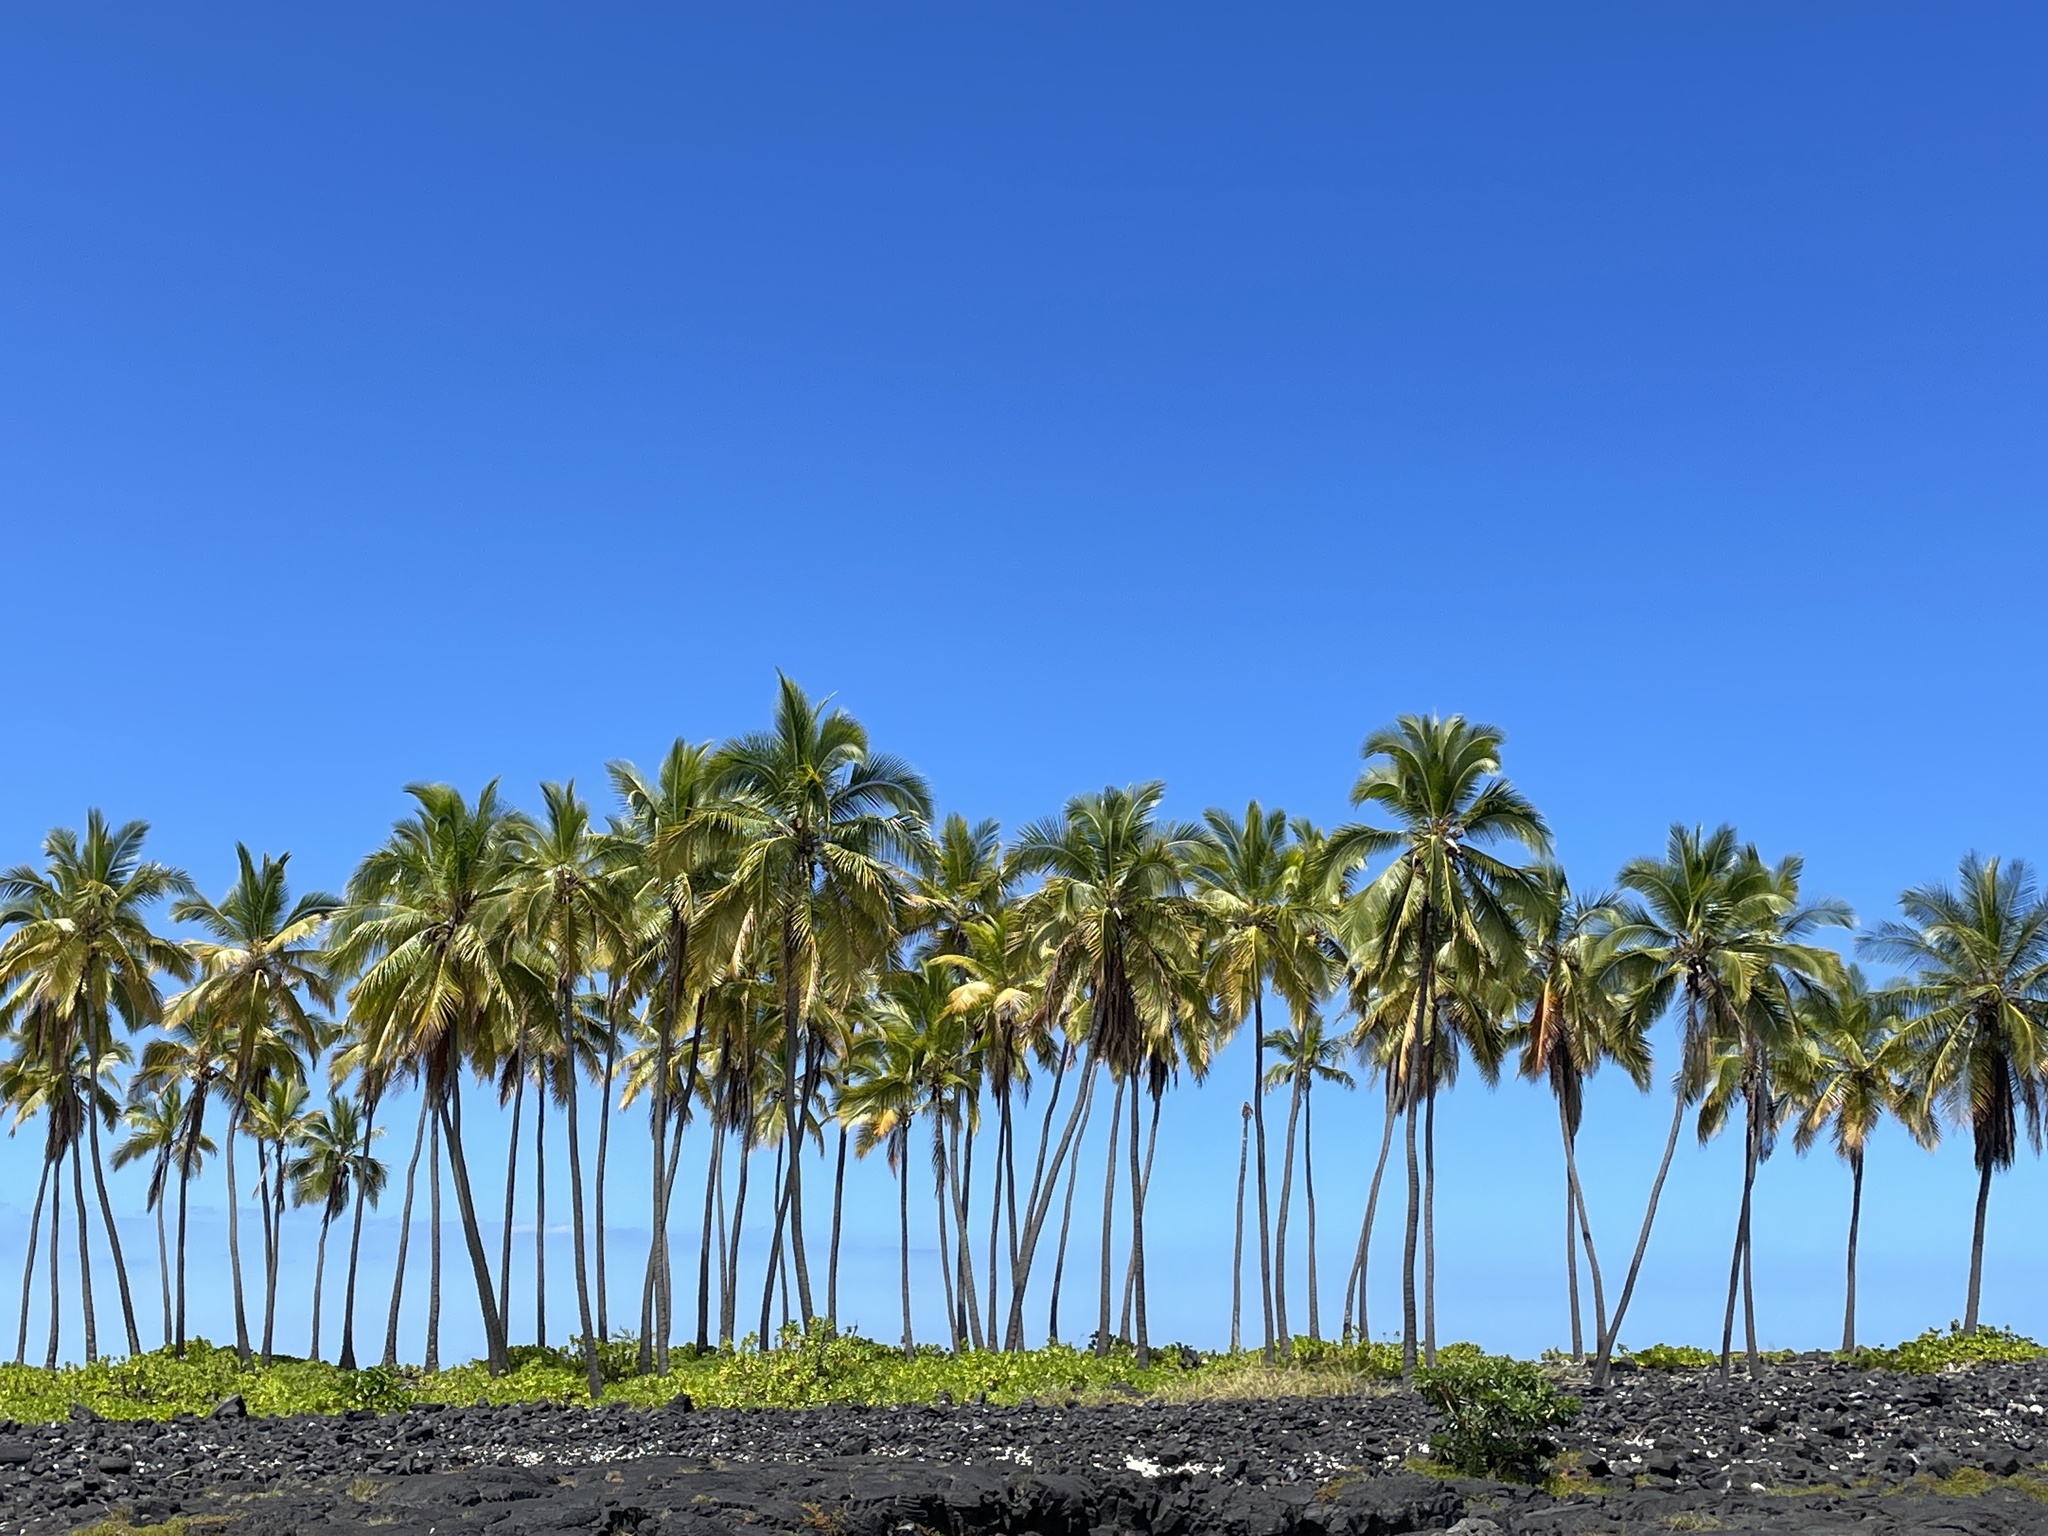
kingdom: Plantae
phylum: Tracheophyta
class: Liliopsida
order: Arecales
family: Arecaceae
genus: Cocos
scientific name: Cocos nucifera
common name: Coconut palm
